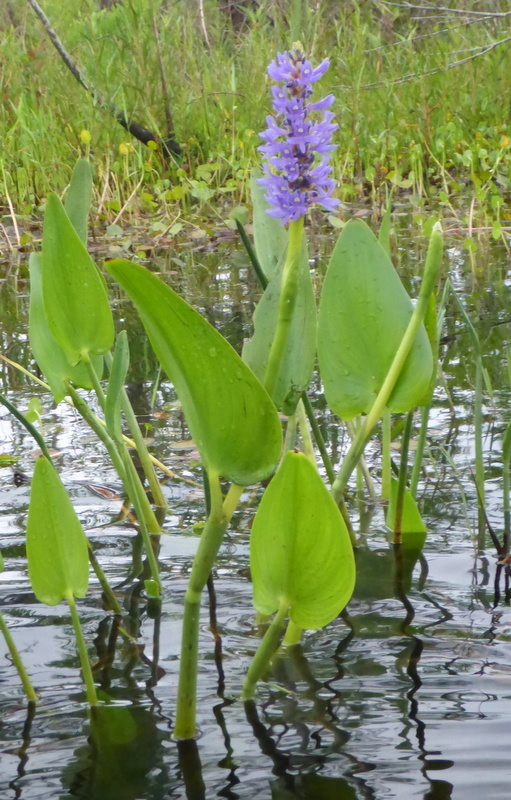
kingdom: Plantae
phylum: Tracheophyta
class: Liliopsida
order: Commelinales
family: Pontederiaceae
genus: Pontederia
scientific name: Pontederia cordata
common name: Pickerelweed
